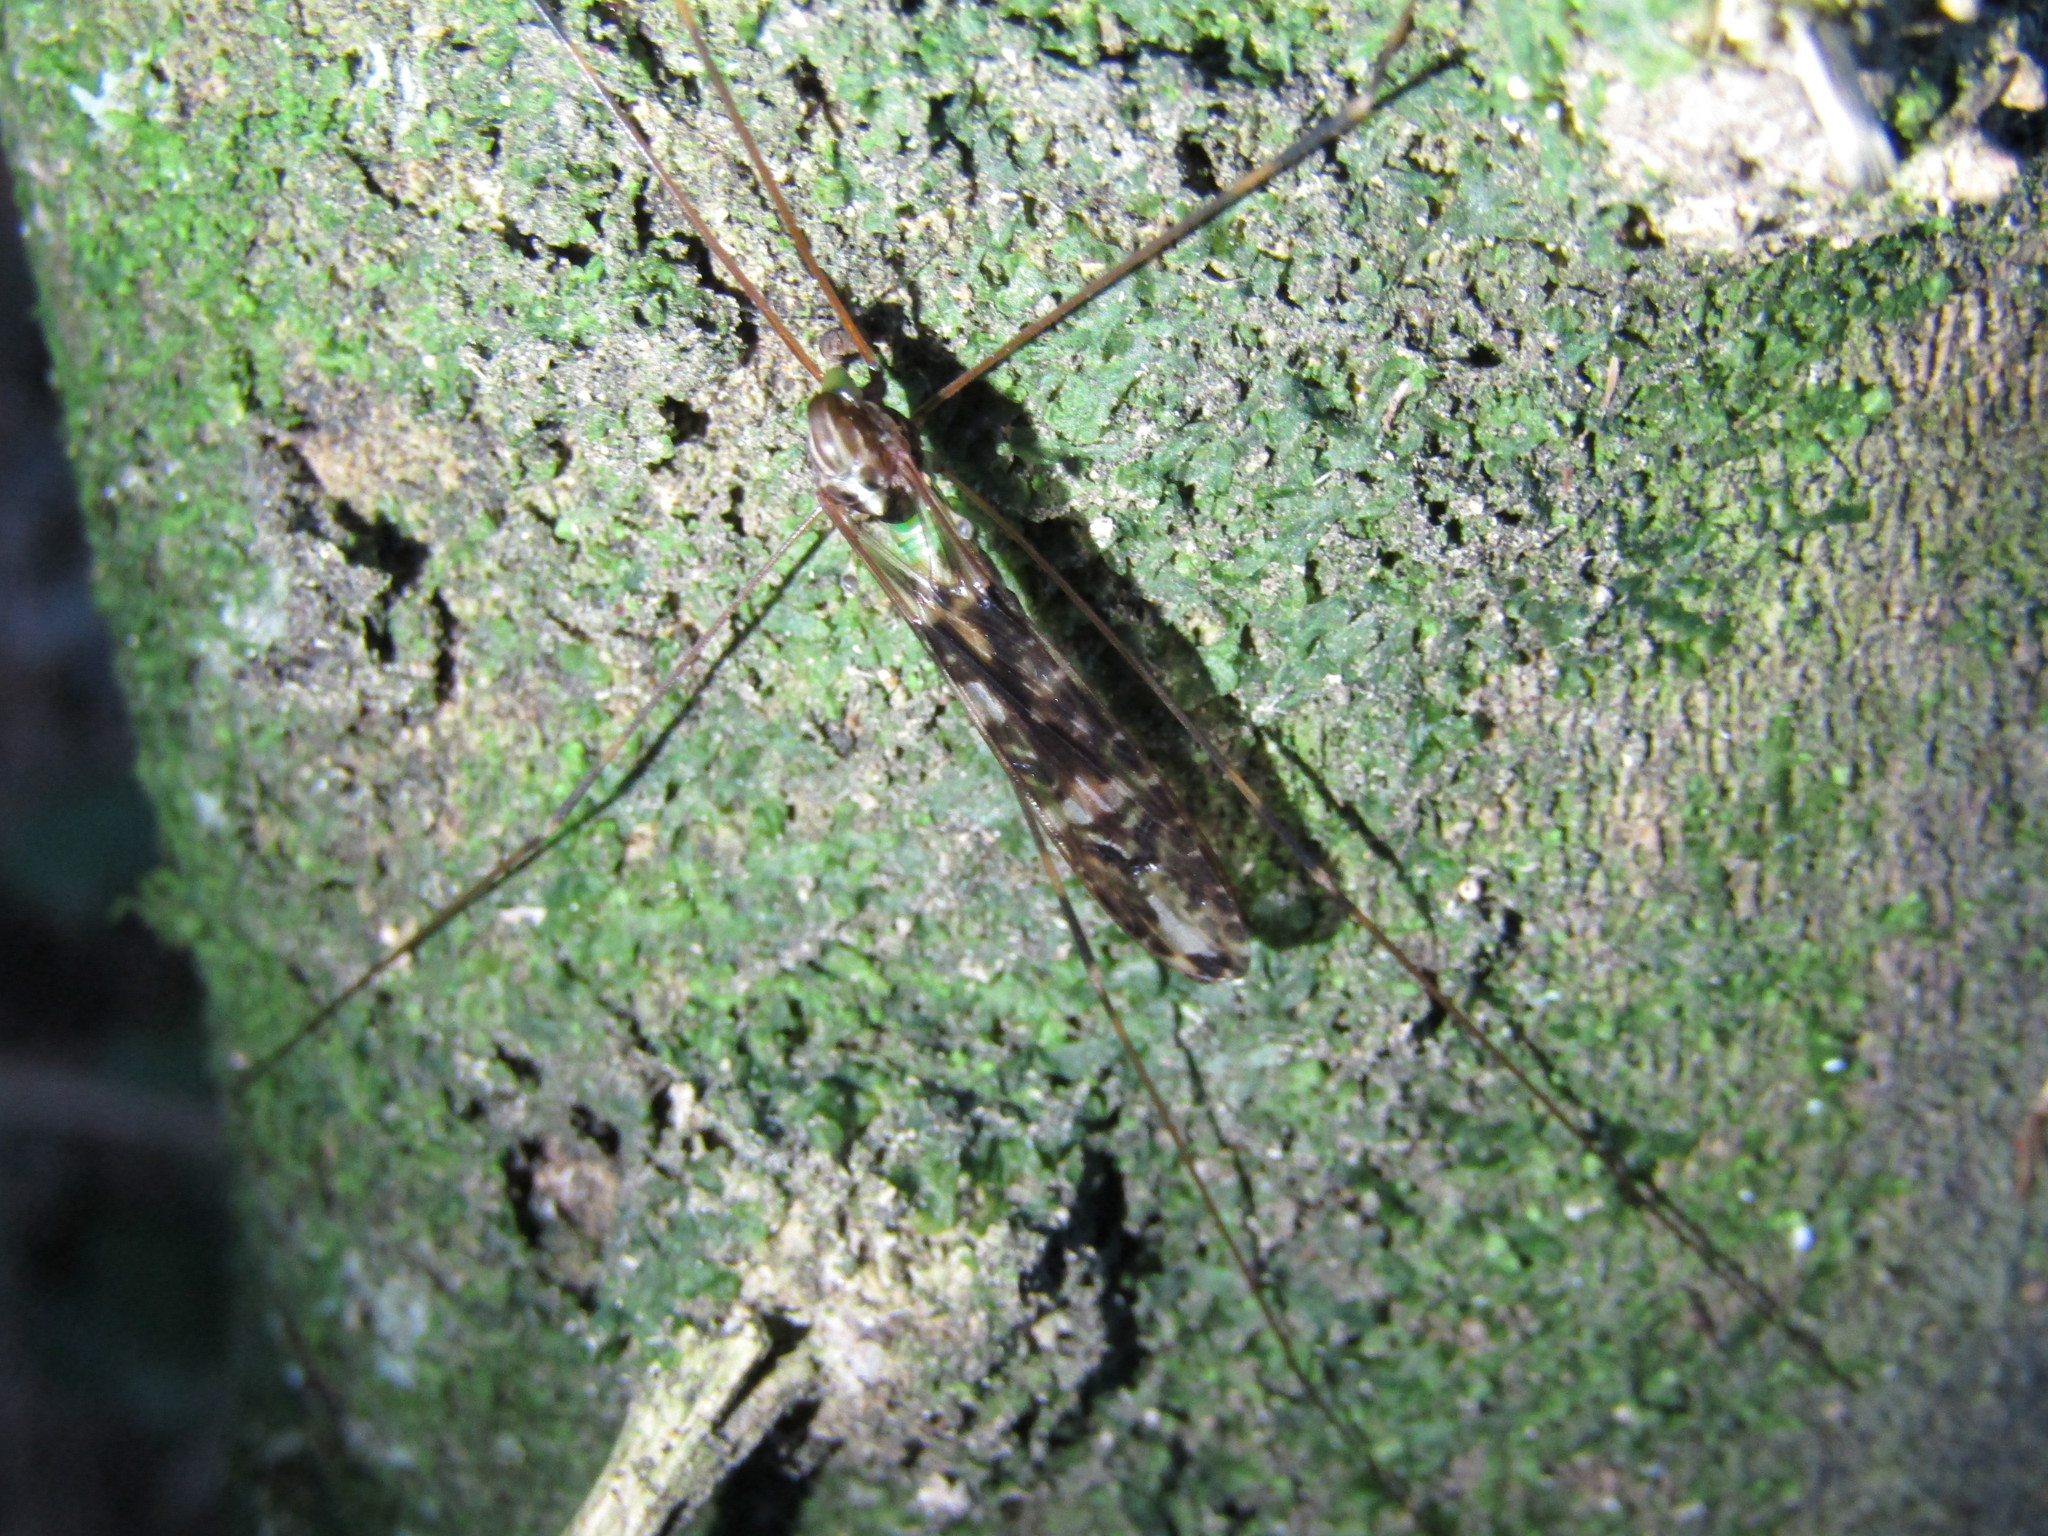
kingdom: Animalia
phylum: Arthropoda
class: Insecta
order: Diptera
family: Limoniidae
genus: Discobola
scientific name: Discobola dohrni
